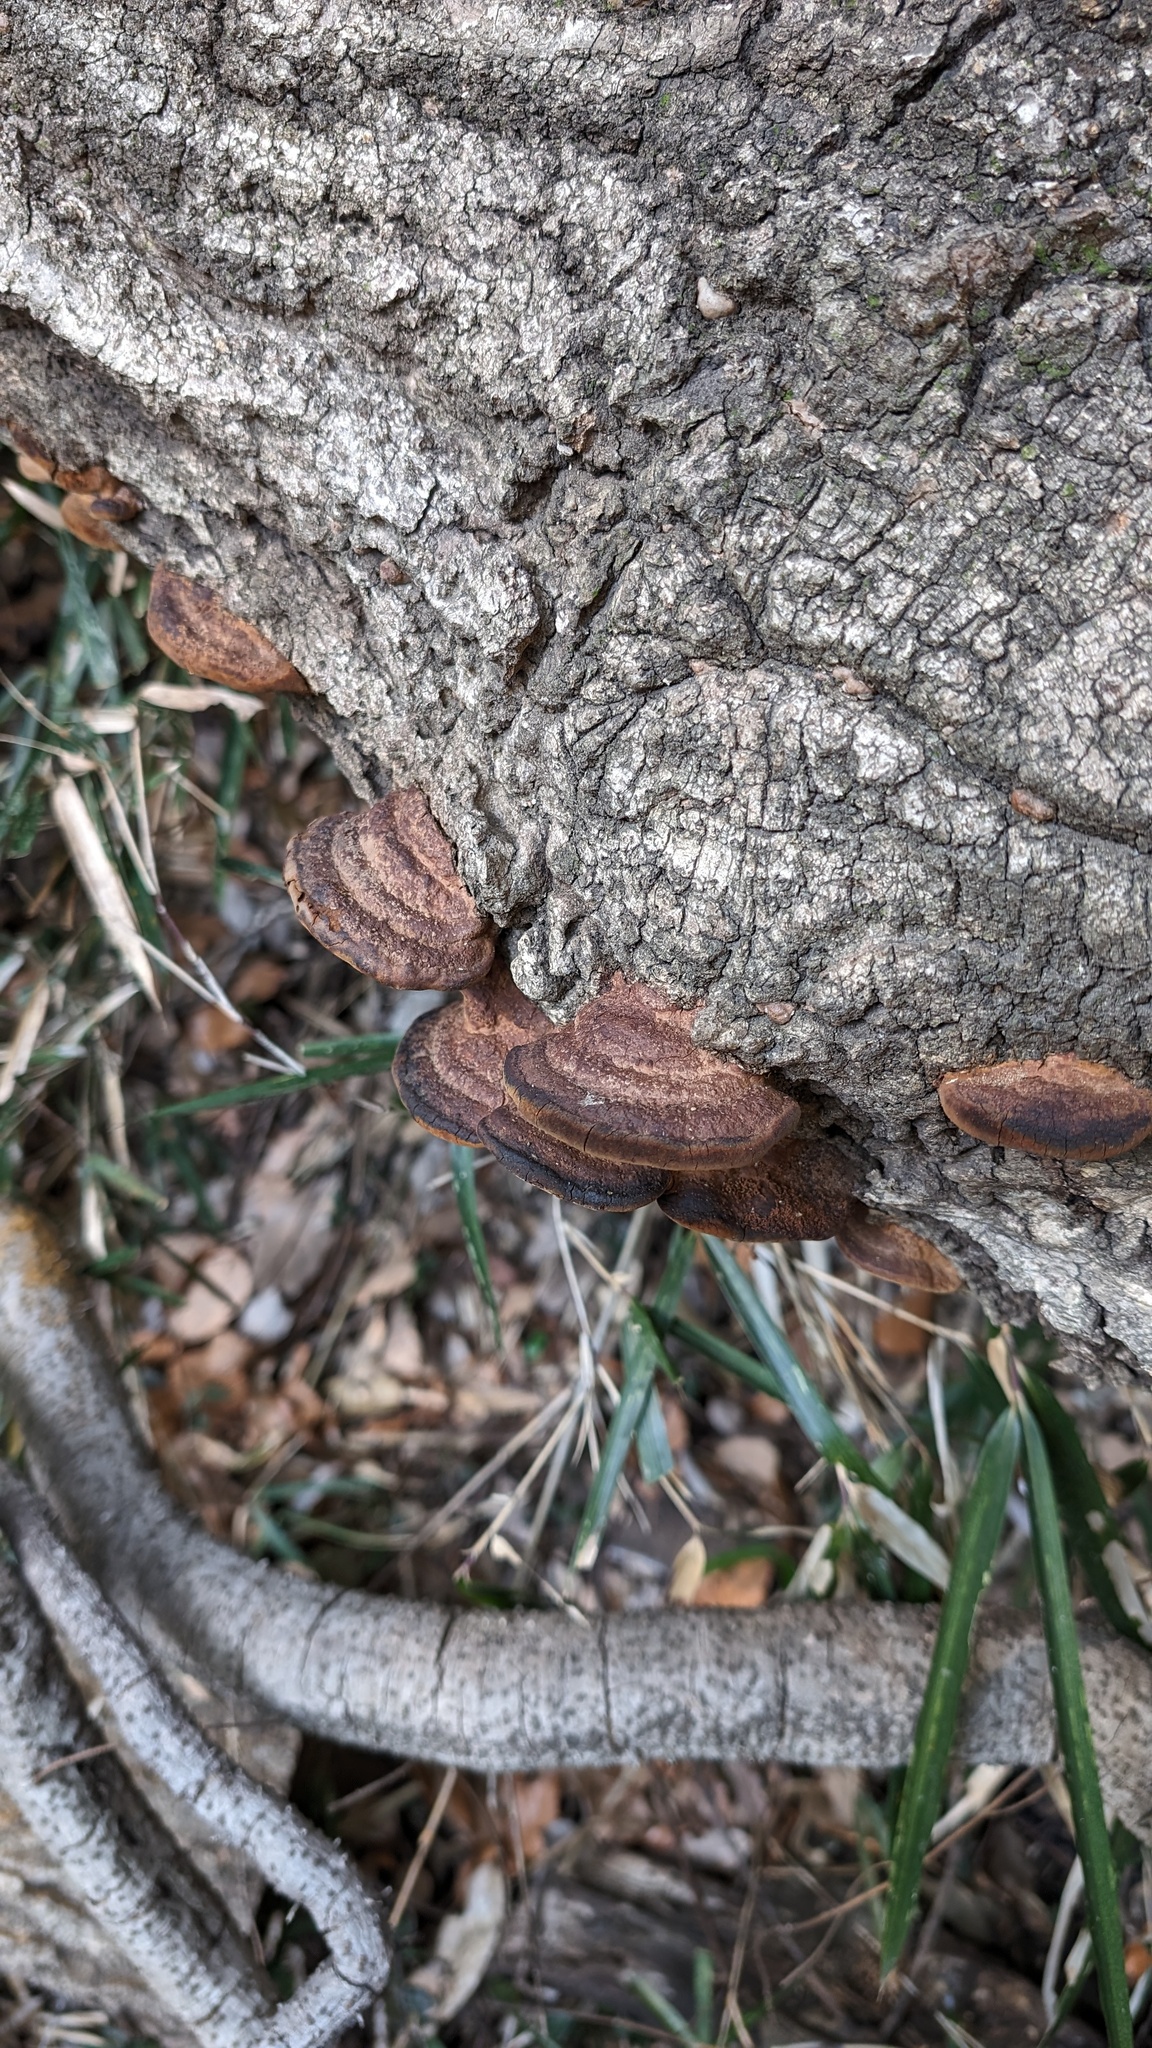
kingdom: Fungi
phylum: Basidiomycota
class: Agaricomycetes
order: Hymenochaetales
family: Hymenochaetaceae
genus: Phellinus
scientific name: Phellinus gilvus
